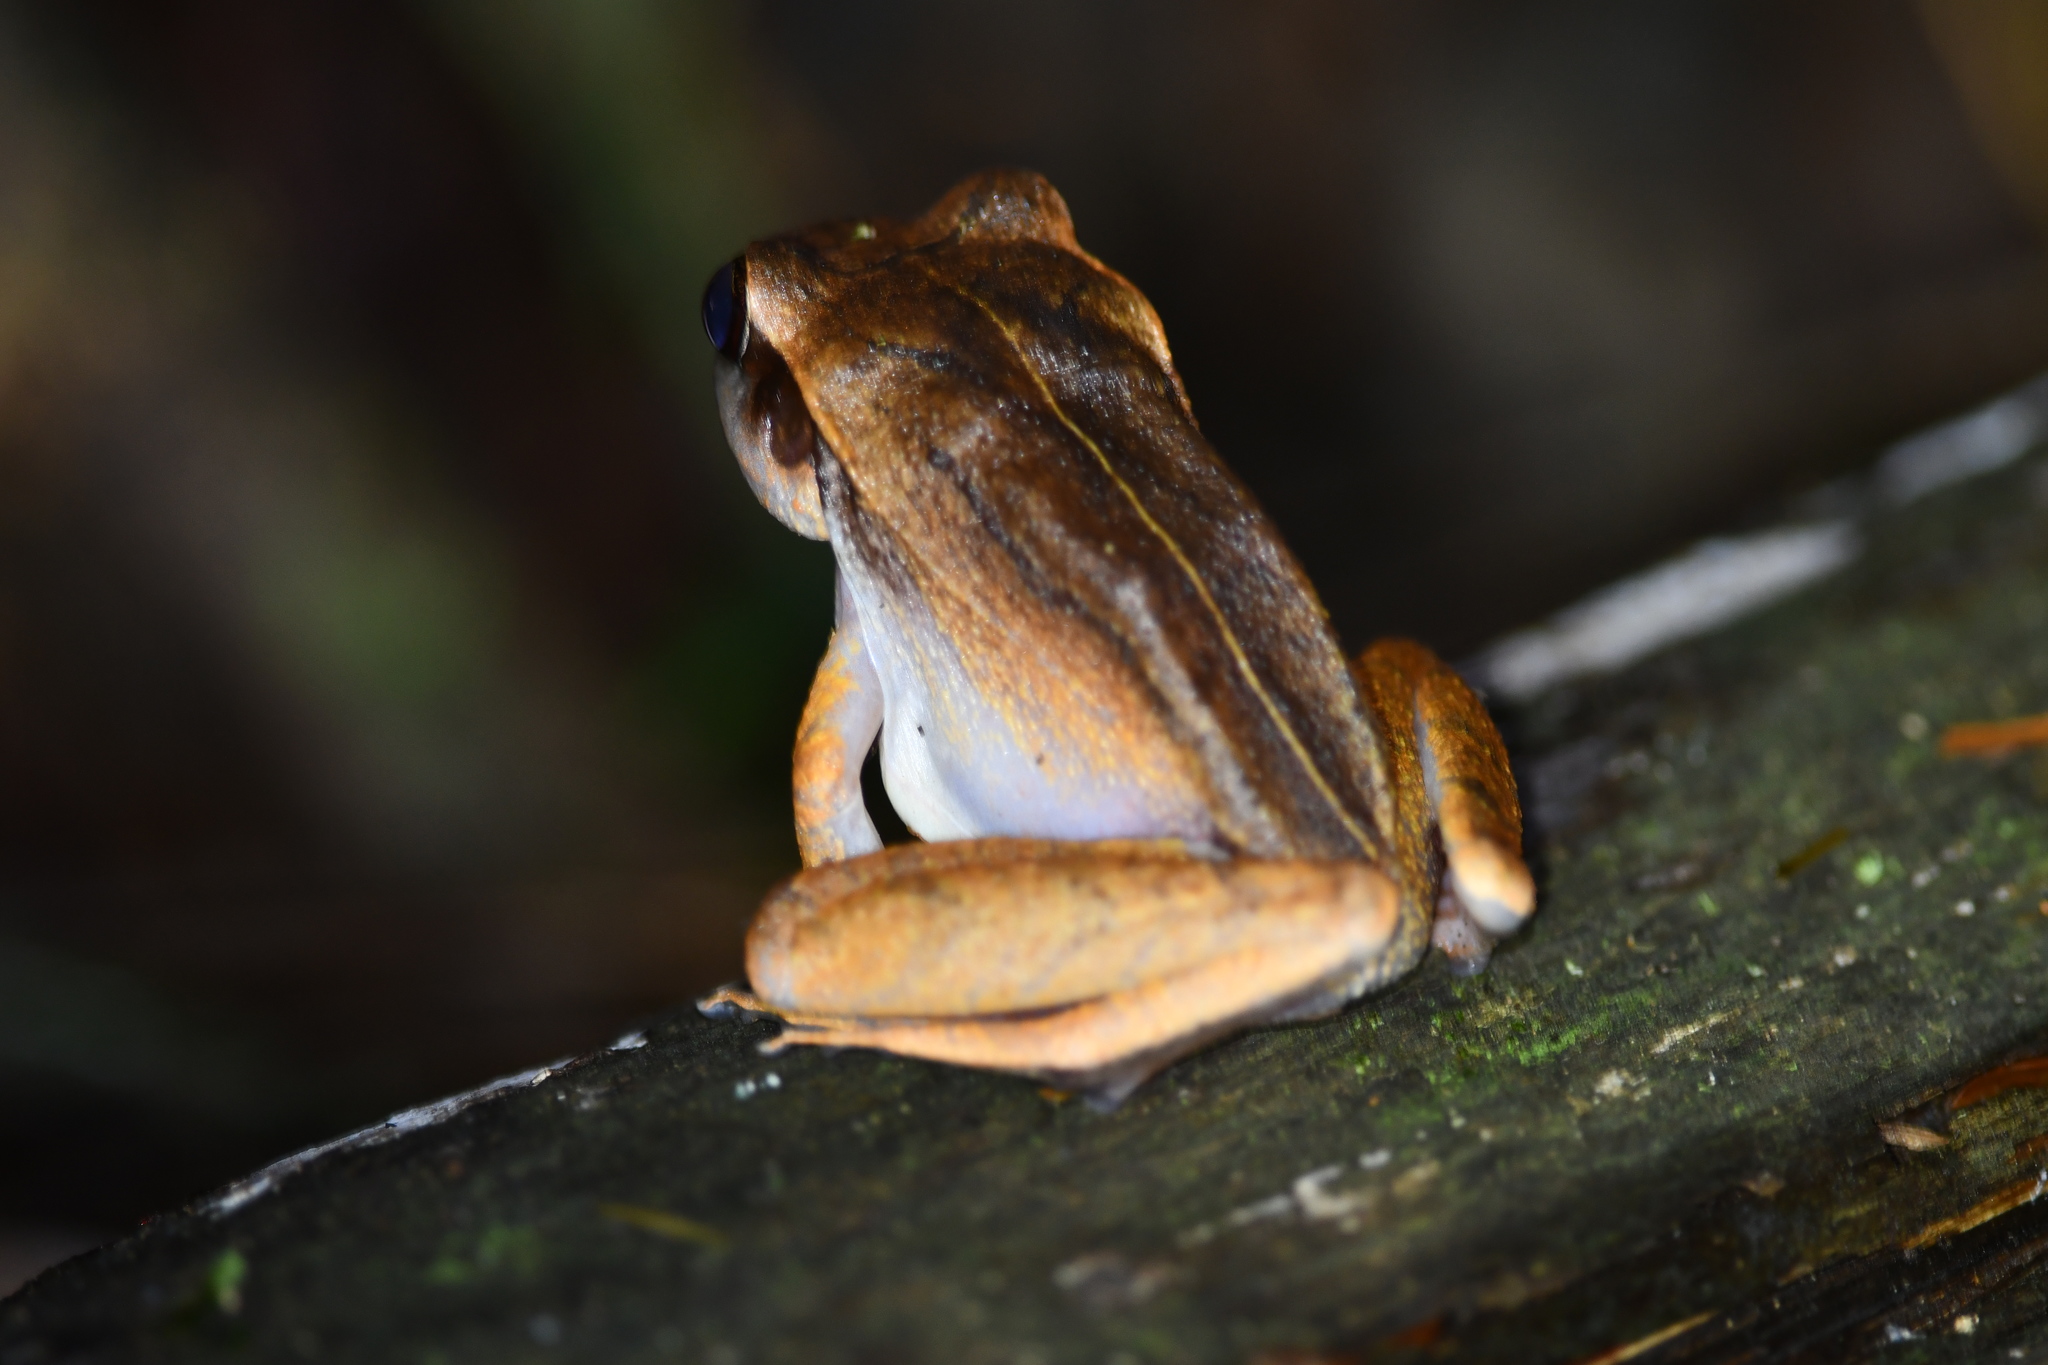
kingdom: Animalia
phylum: Chordata
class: Amphibia
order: Anura
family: Craugastoridae
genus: Craugastor
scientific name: Craugastor noblei
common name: Noble's robber frog
